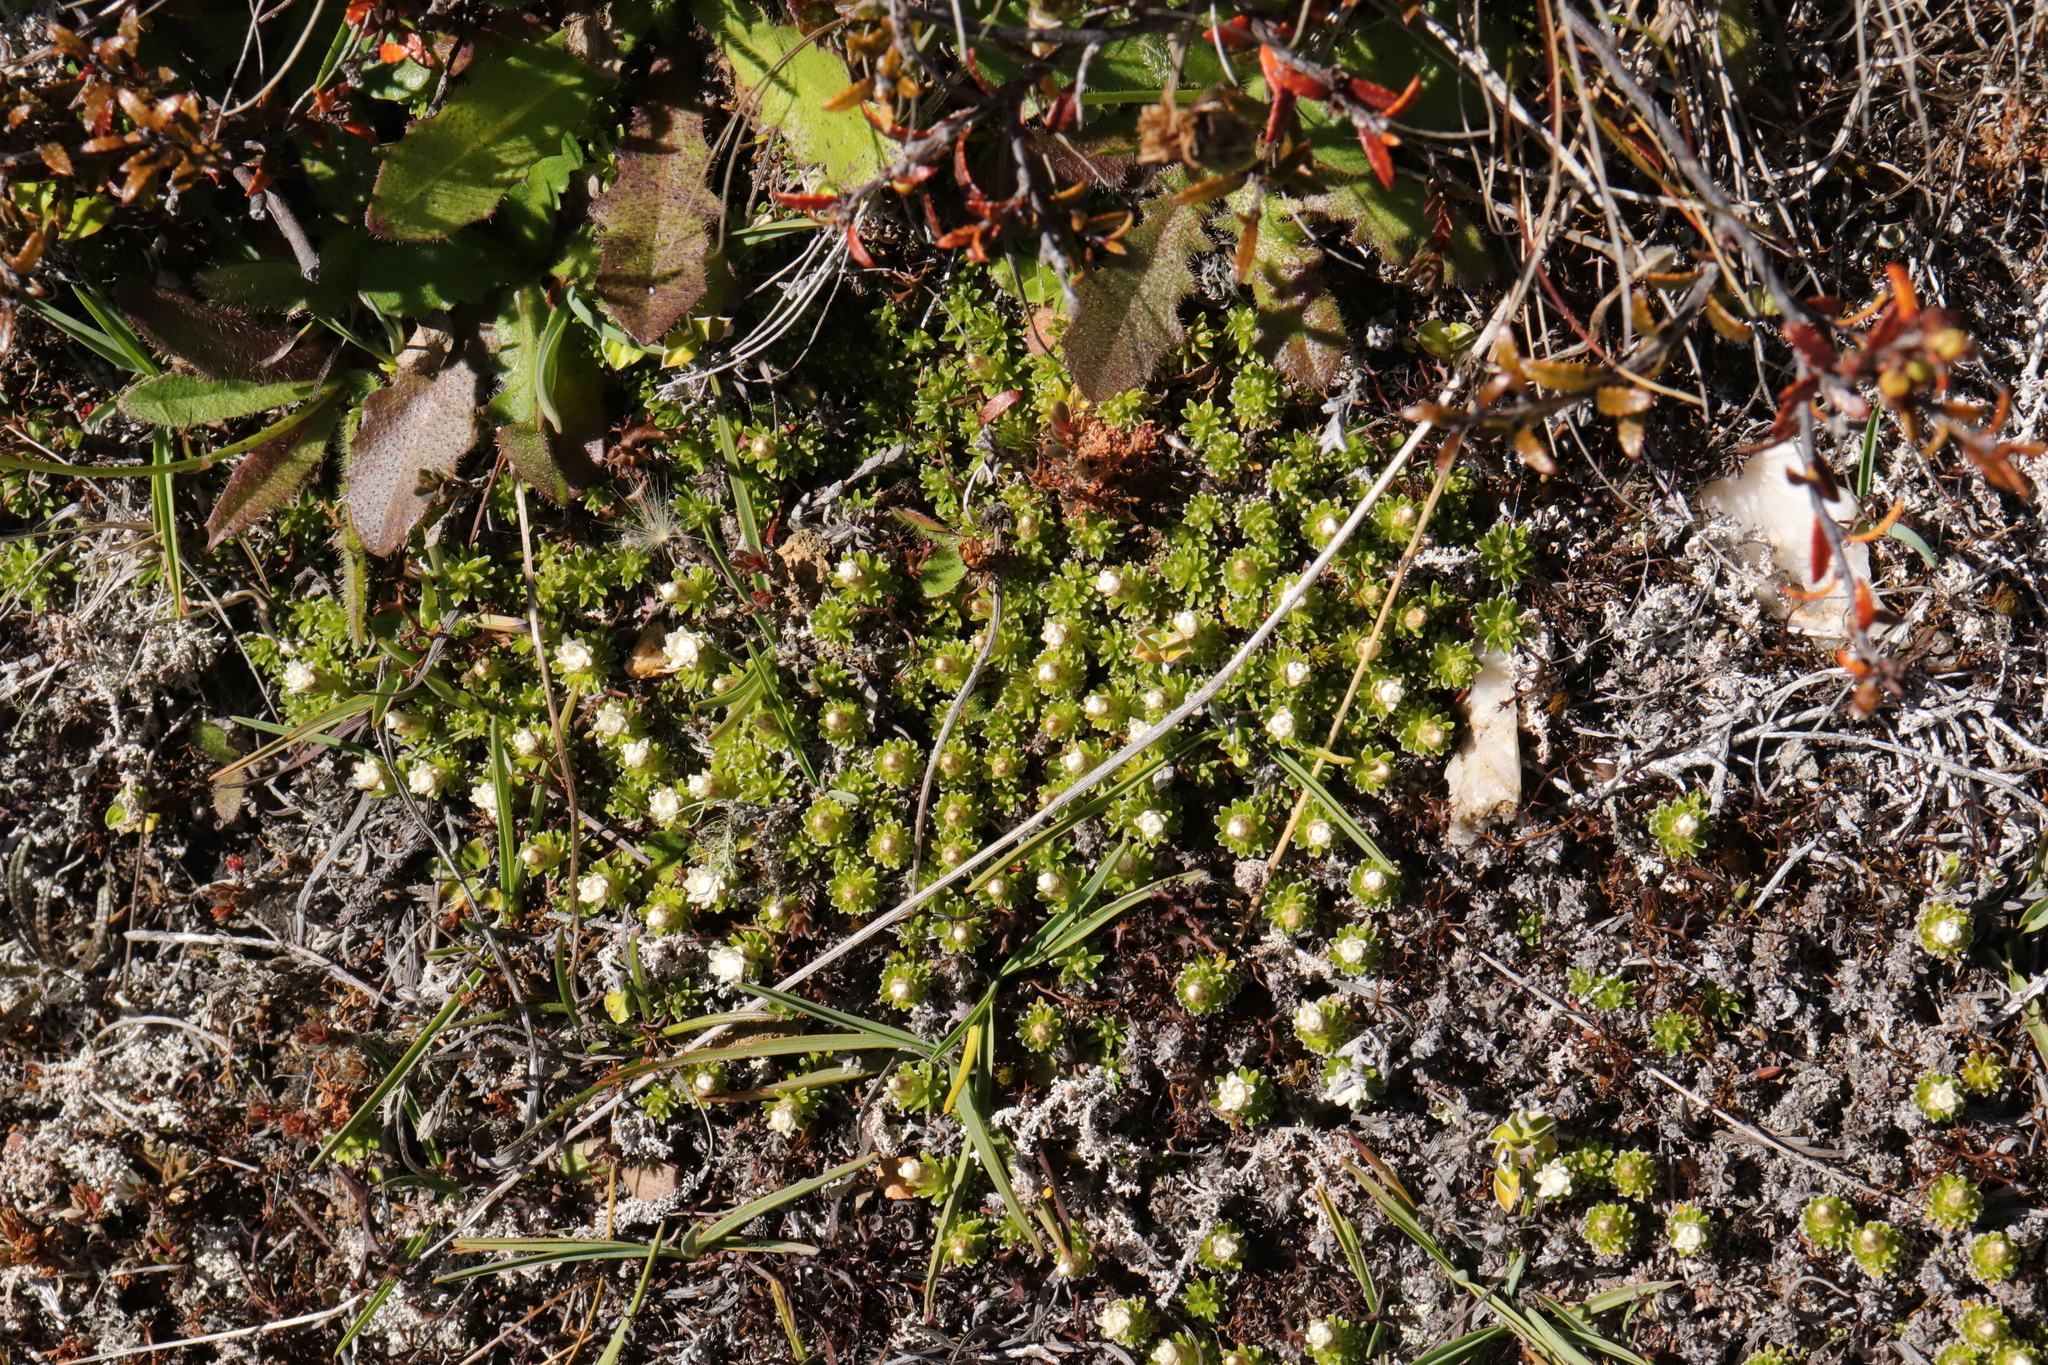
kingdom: Plantae
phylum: Tracheophyta
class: Magnoliopsida
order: Asterales
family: Asteraceae
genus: Raoulia
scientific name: Raoulia subsericea
